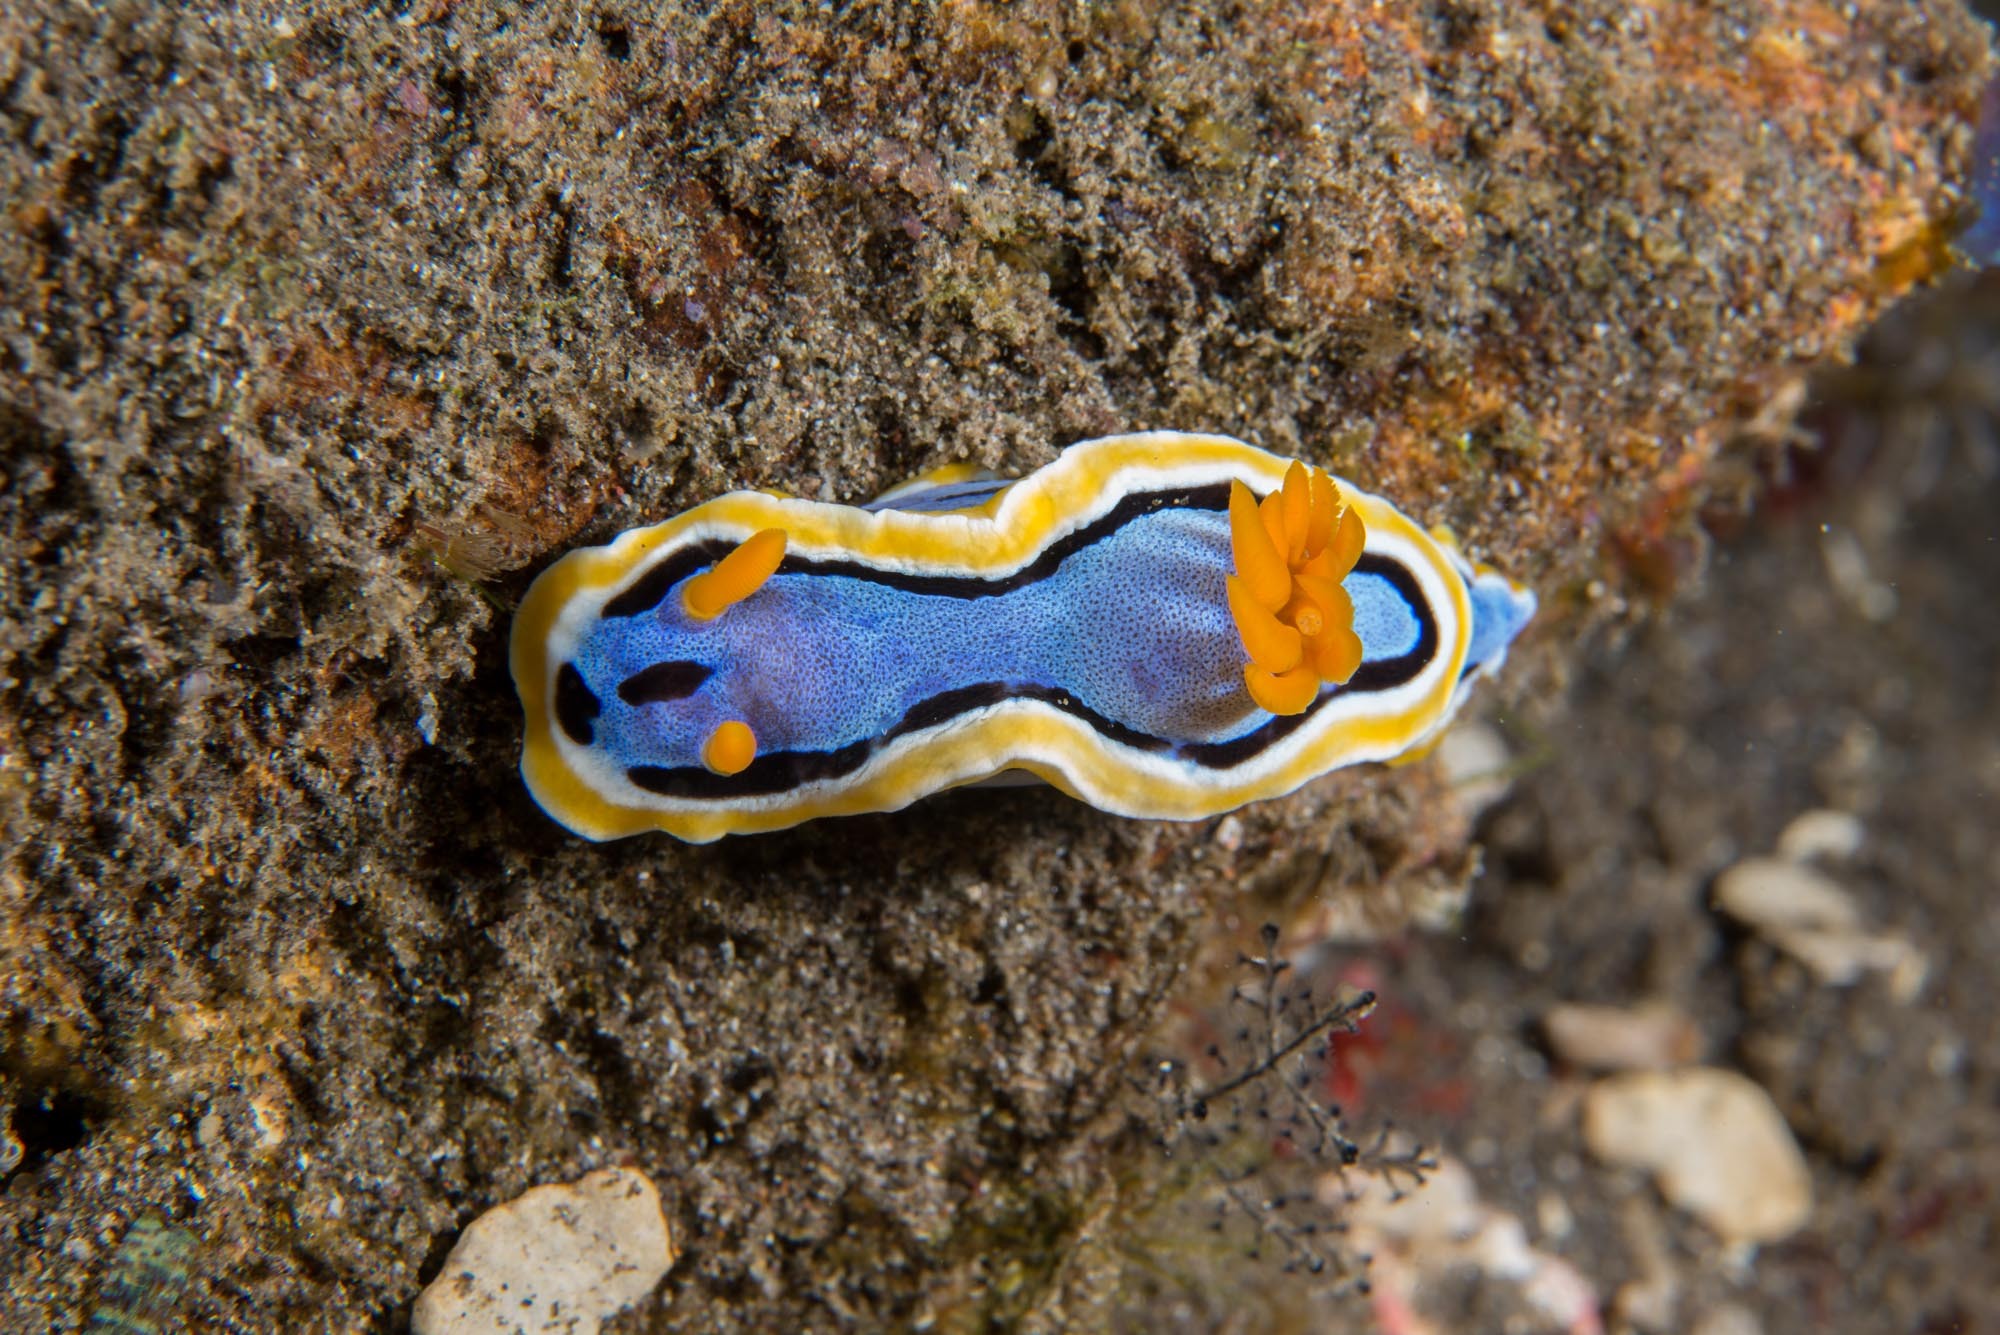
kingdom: Animalia
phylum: Mollusca
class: Gastropoda
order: Nudibranchia
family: Chromodorididae
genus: Chromodoris
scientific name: Chromodoris annae
